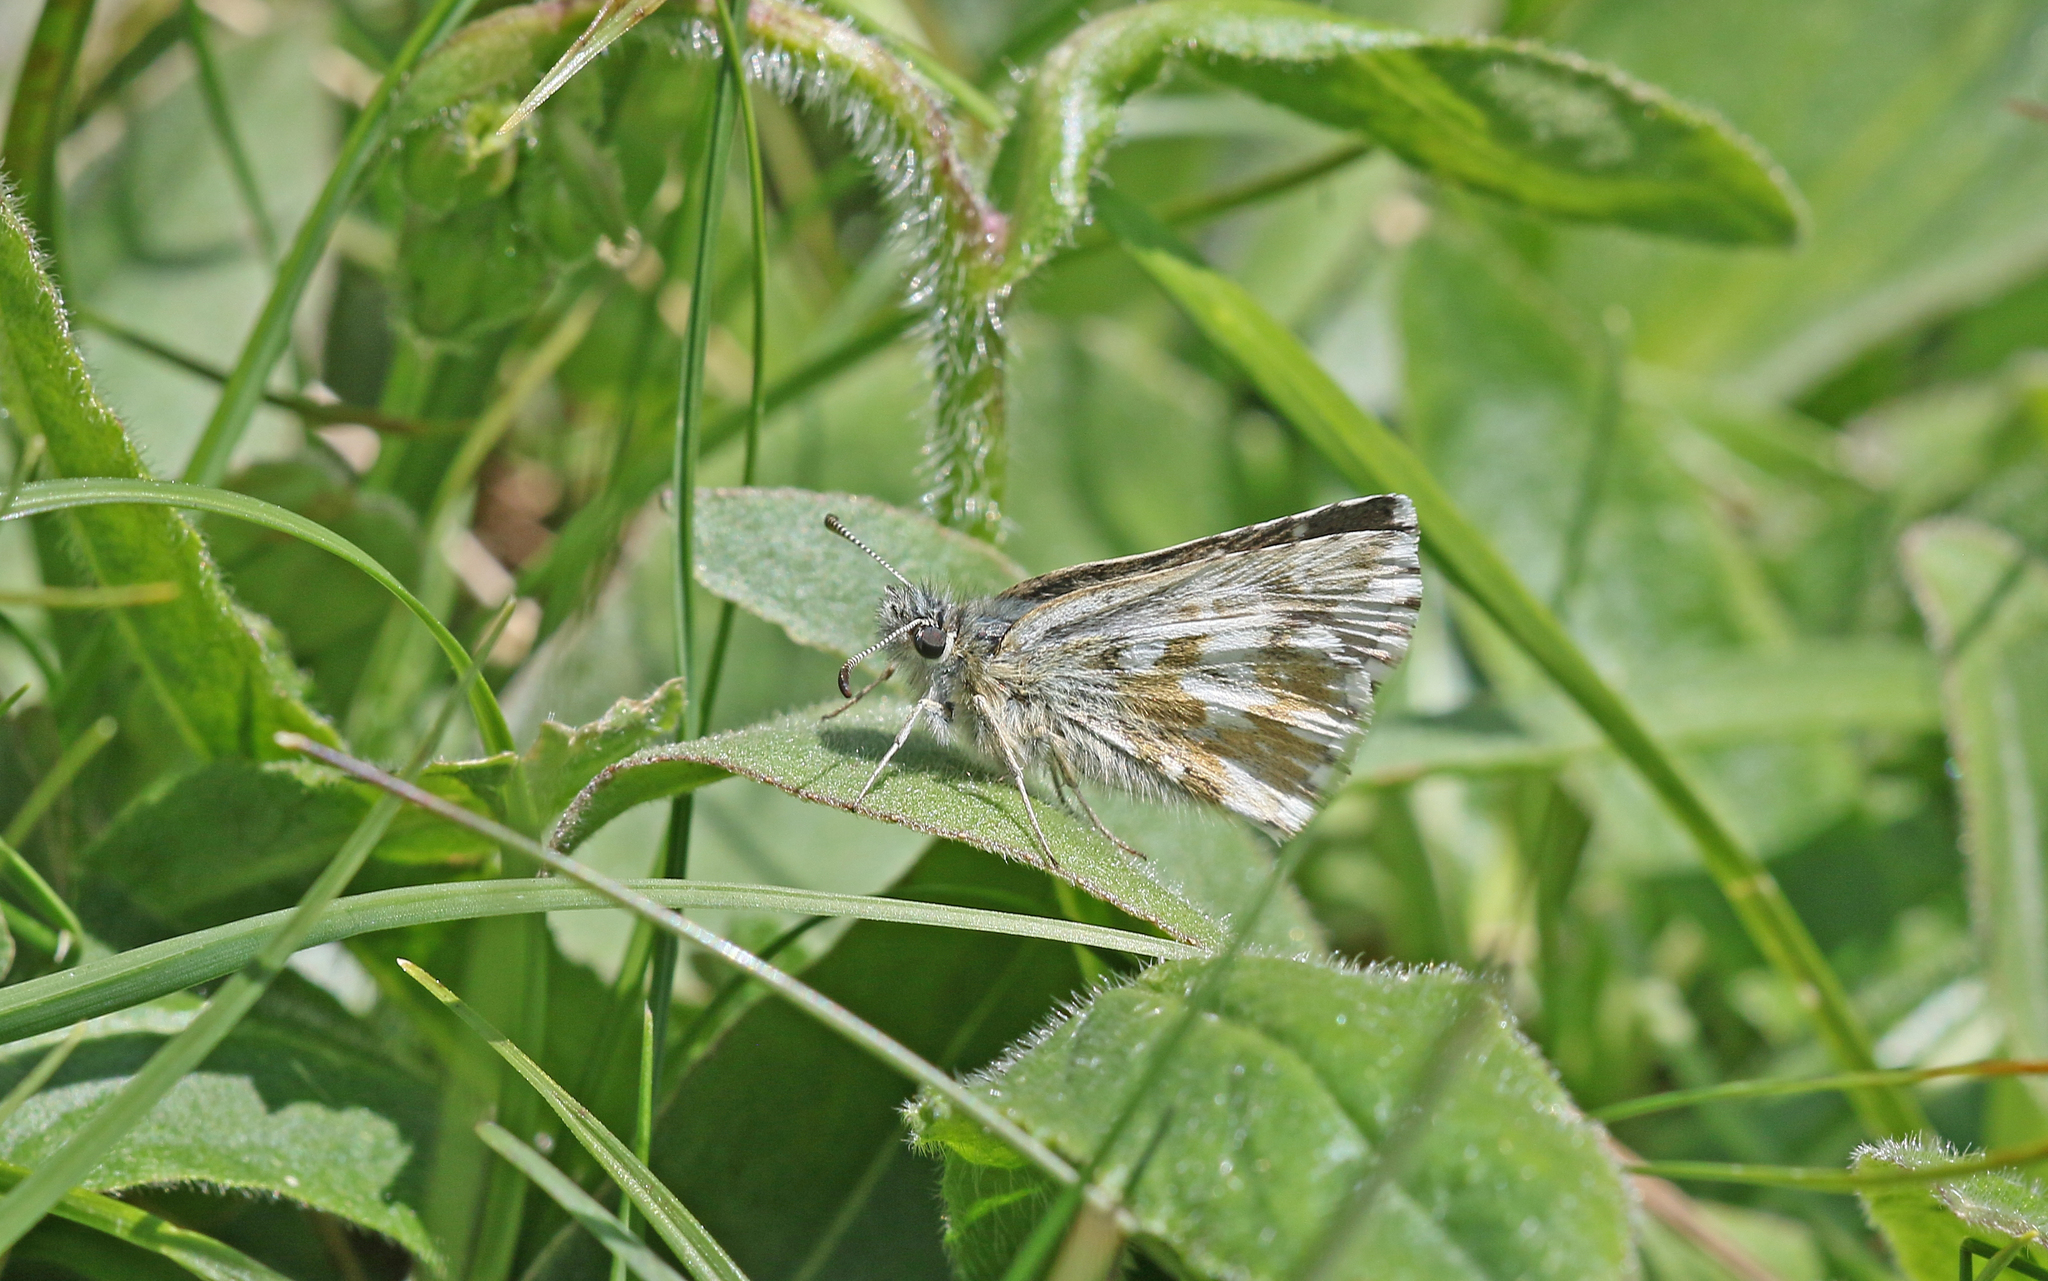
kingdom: Animalia
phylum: Arthropoda
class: Insecta
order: Lepidoptera
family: Hesperiidae
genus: Pyrgus
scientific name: Pyrgus cacaliae
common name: Dusky grizzled skipper
